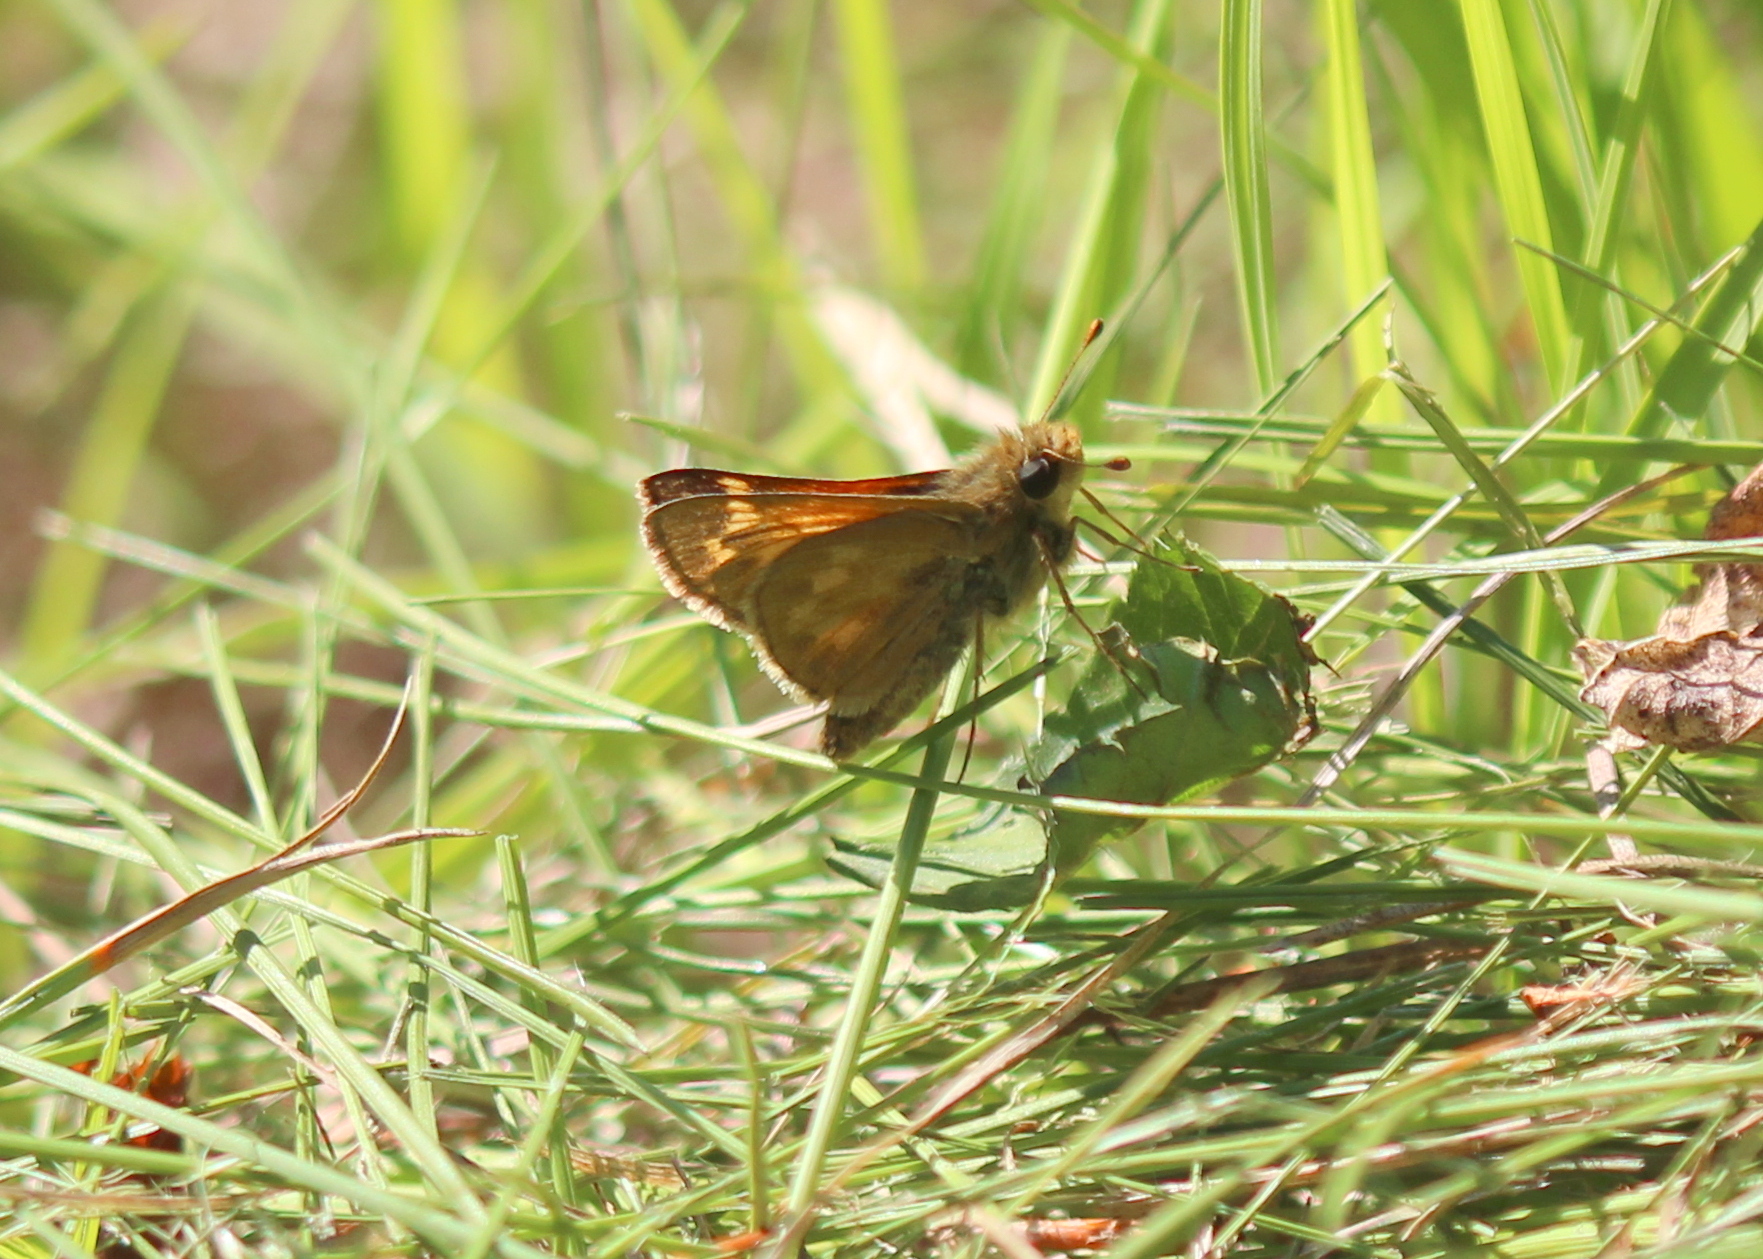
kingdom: Animalia
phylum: Arthropoda
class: Insecta
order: Lepidoptera
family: Hesperiidae
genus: Hesperia
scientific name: Hesperia sassacus
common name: Indian skipper
